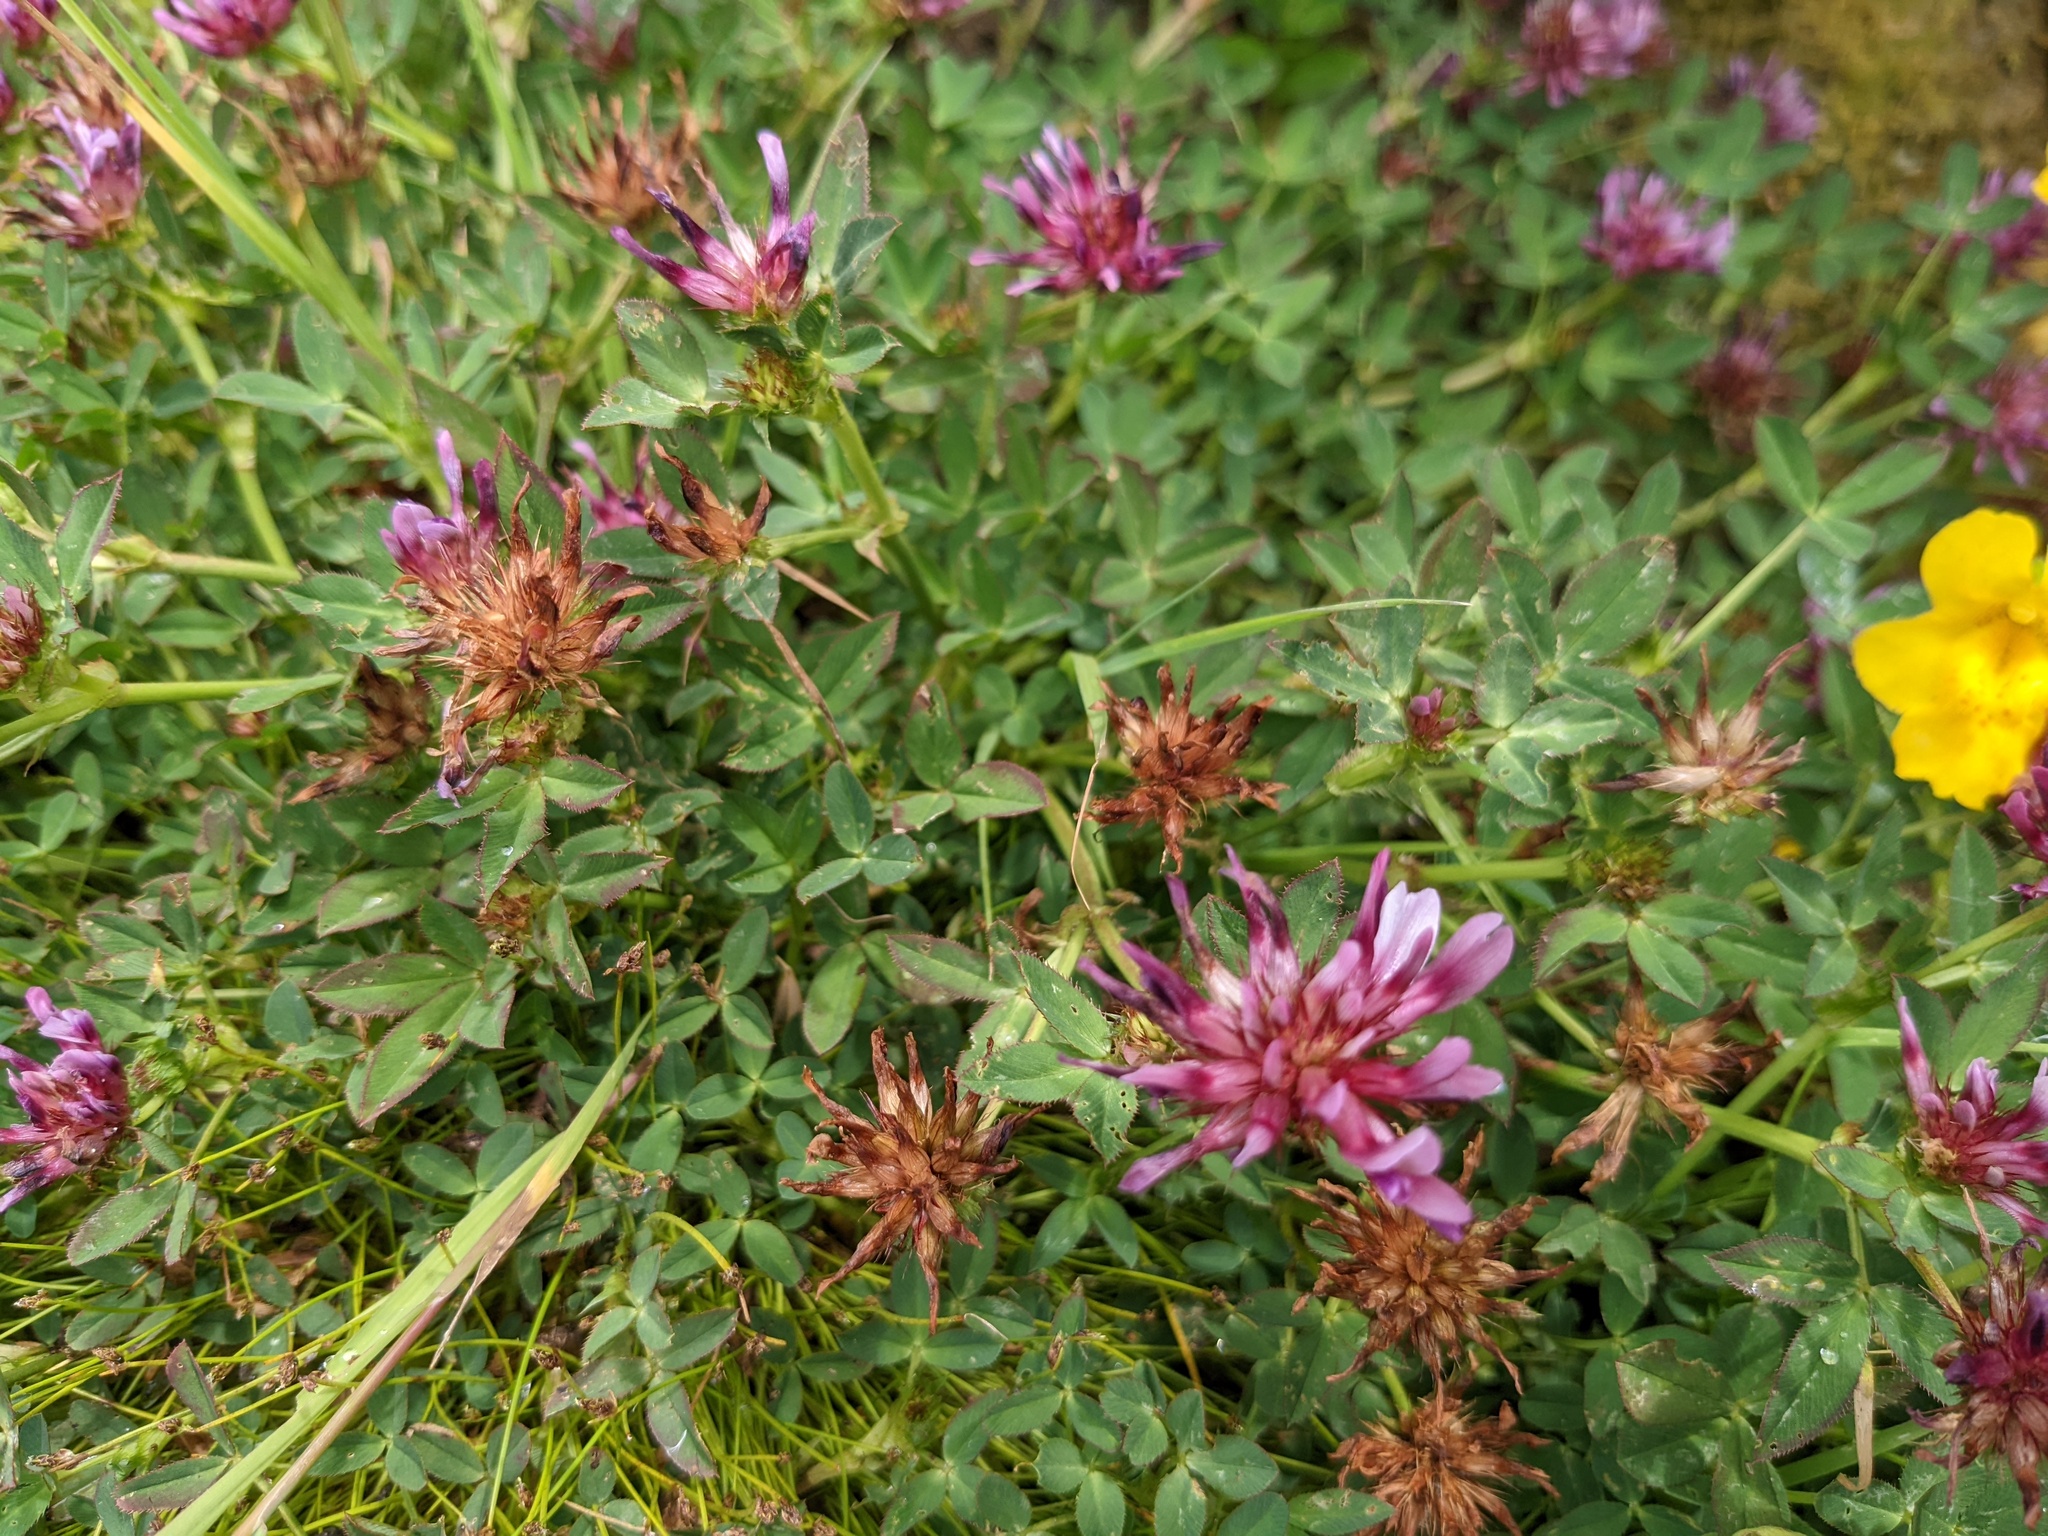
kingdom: Plantae
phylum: Tracheophyta
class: Magnoliopsida
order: Fabales
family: Fabaceae
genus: Trifolium
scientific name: Trifolium wormskioldii
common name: Springbank clover
